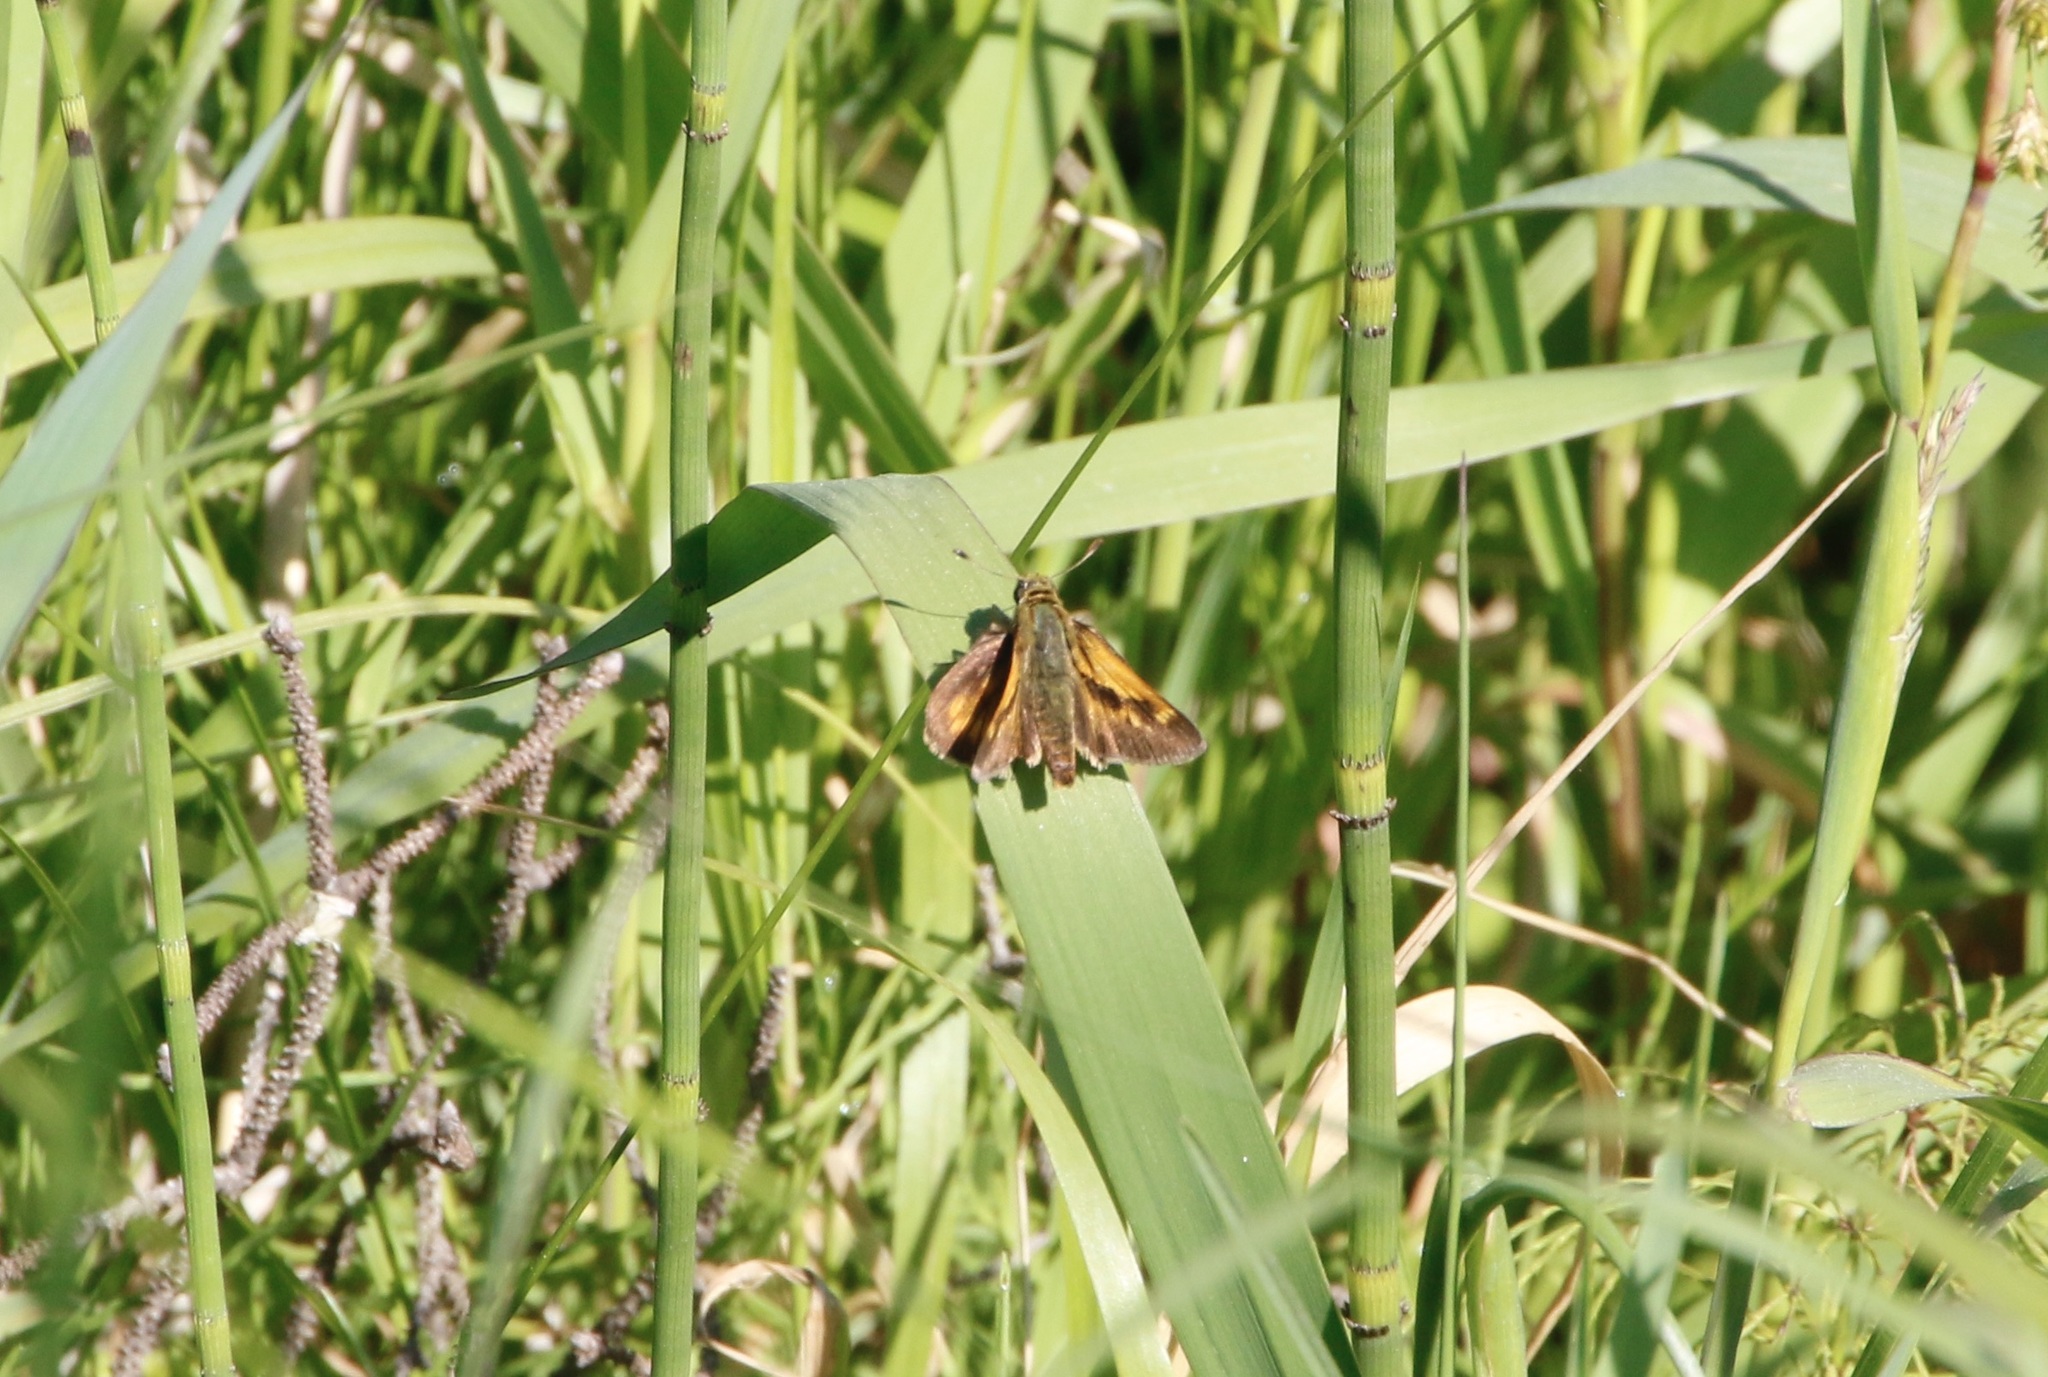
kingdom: Animalia
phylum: Arthropoda
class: Insecta
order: Lepidoptera
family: Hesperiidae
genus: Polites
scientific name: Polites mystic
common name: Long dash
